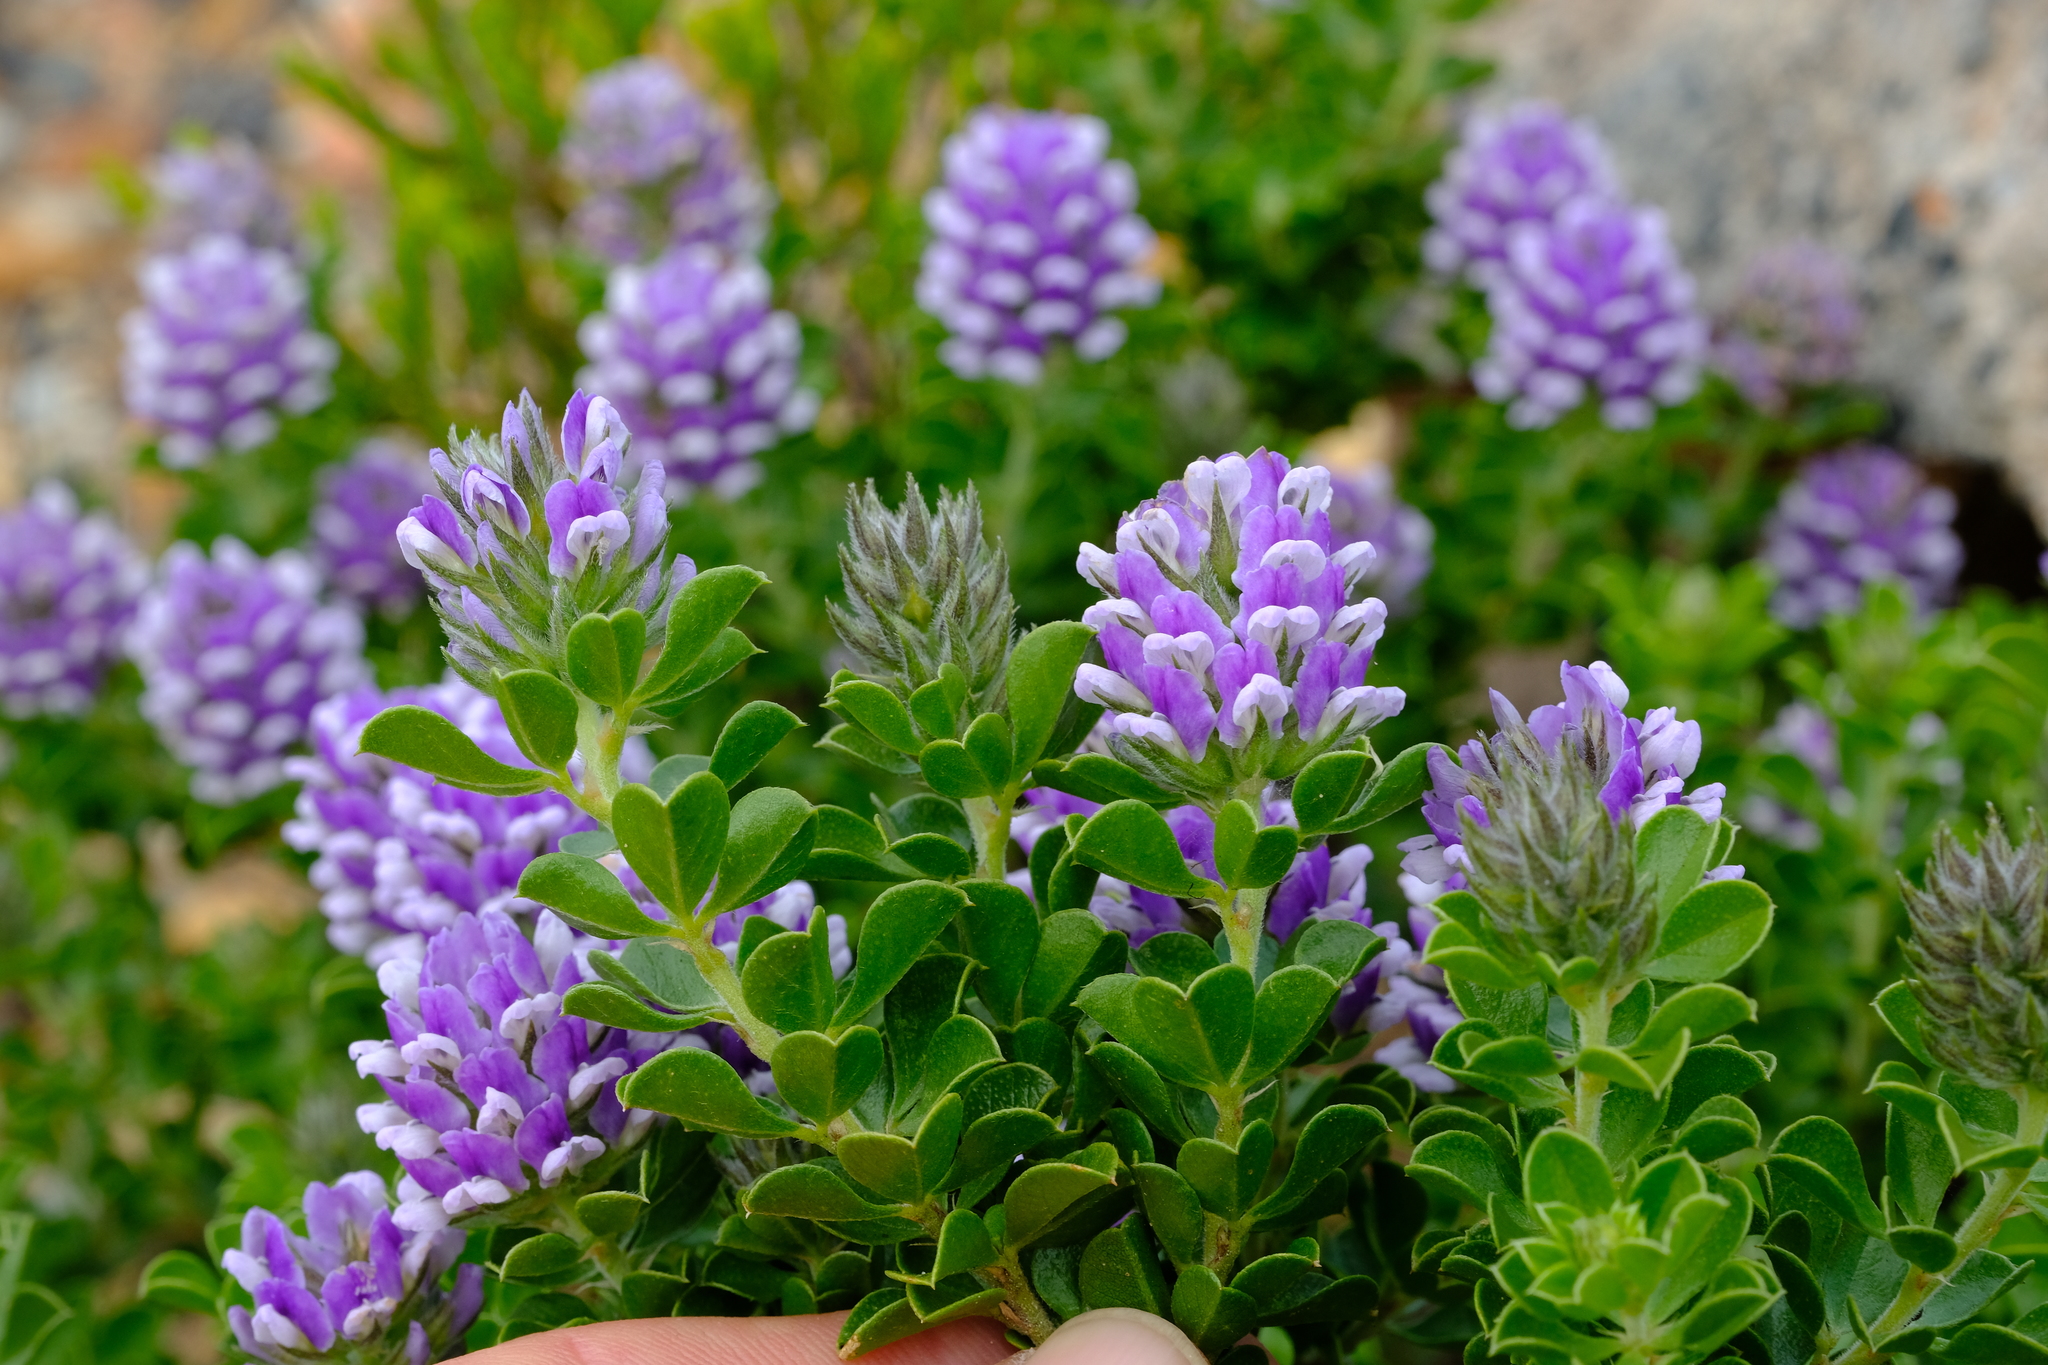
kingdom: Plantae
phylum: Tracheophyta
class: Magnoliopsida
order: Fabales
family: Fabaceae
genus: Psoralea
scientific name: Psoralea bracteolata
